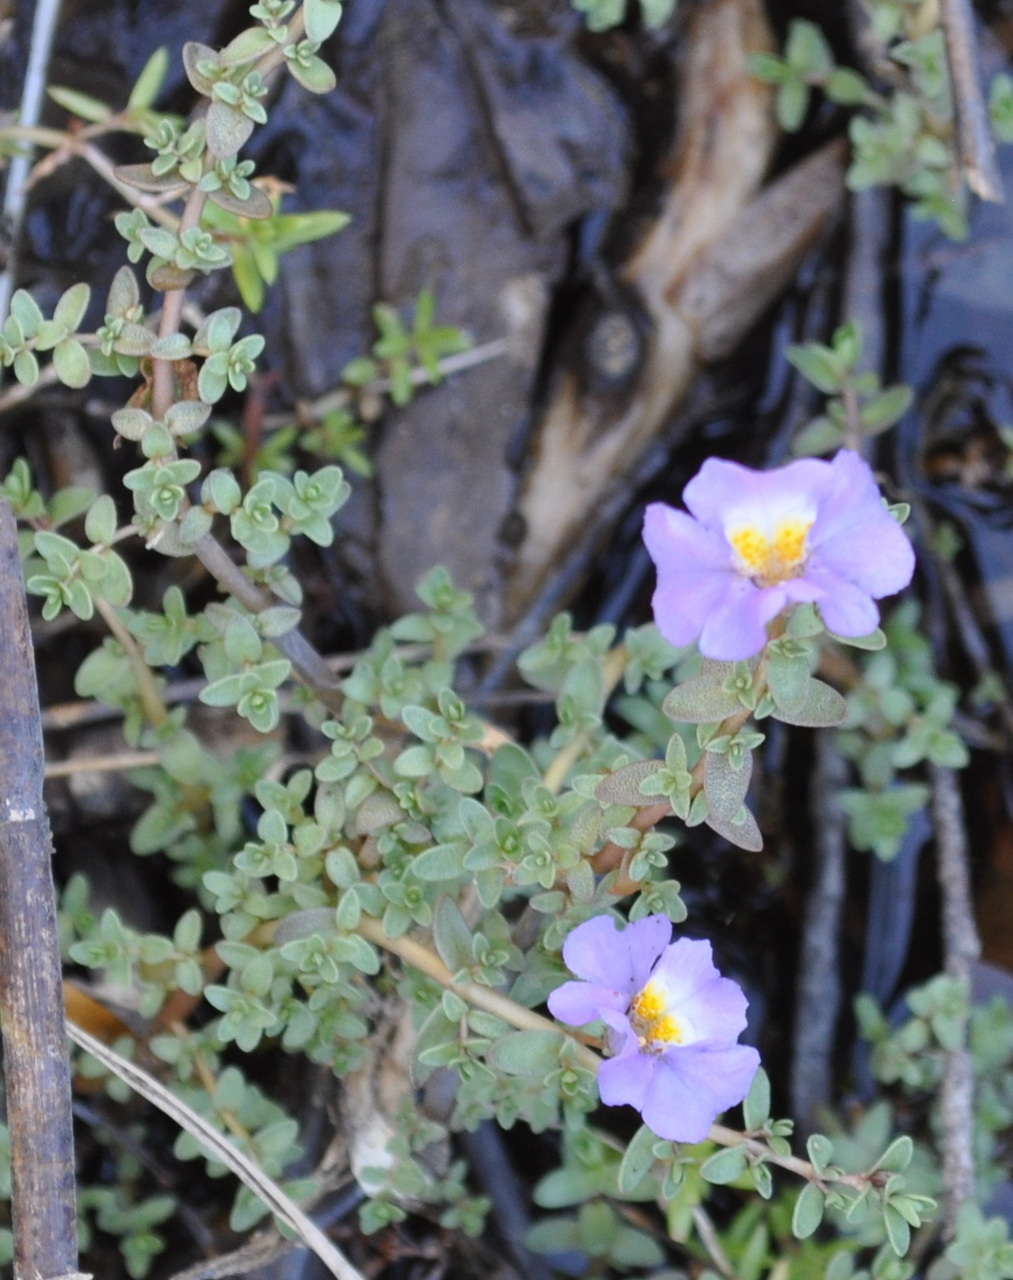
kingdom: Plantae
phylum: Tracheophyta
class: Magnoliopsida
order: Lamiales
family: Phrymaceae
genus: Thyridia
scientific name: Thyridia repens
